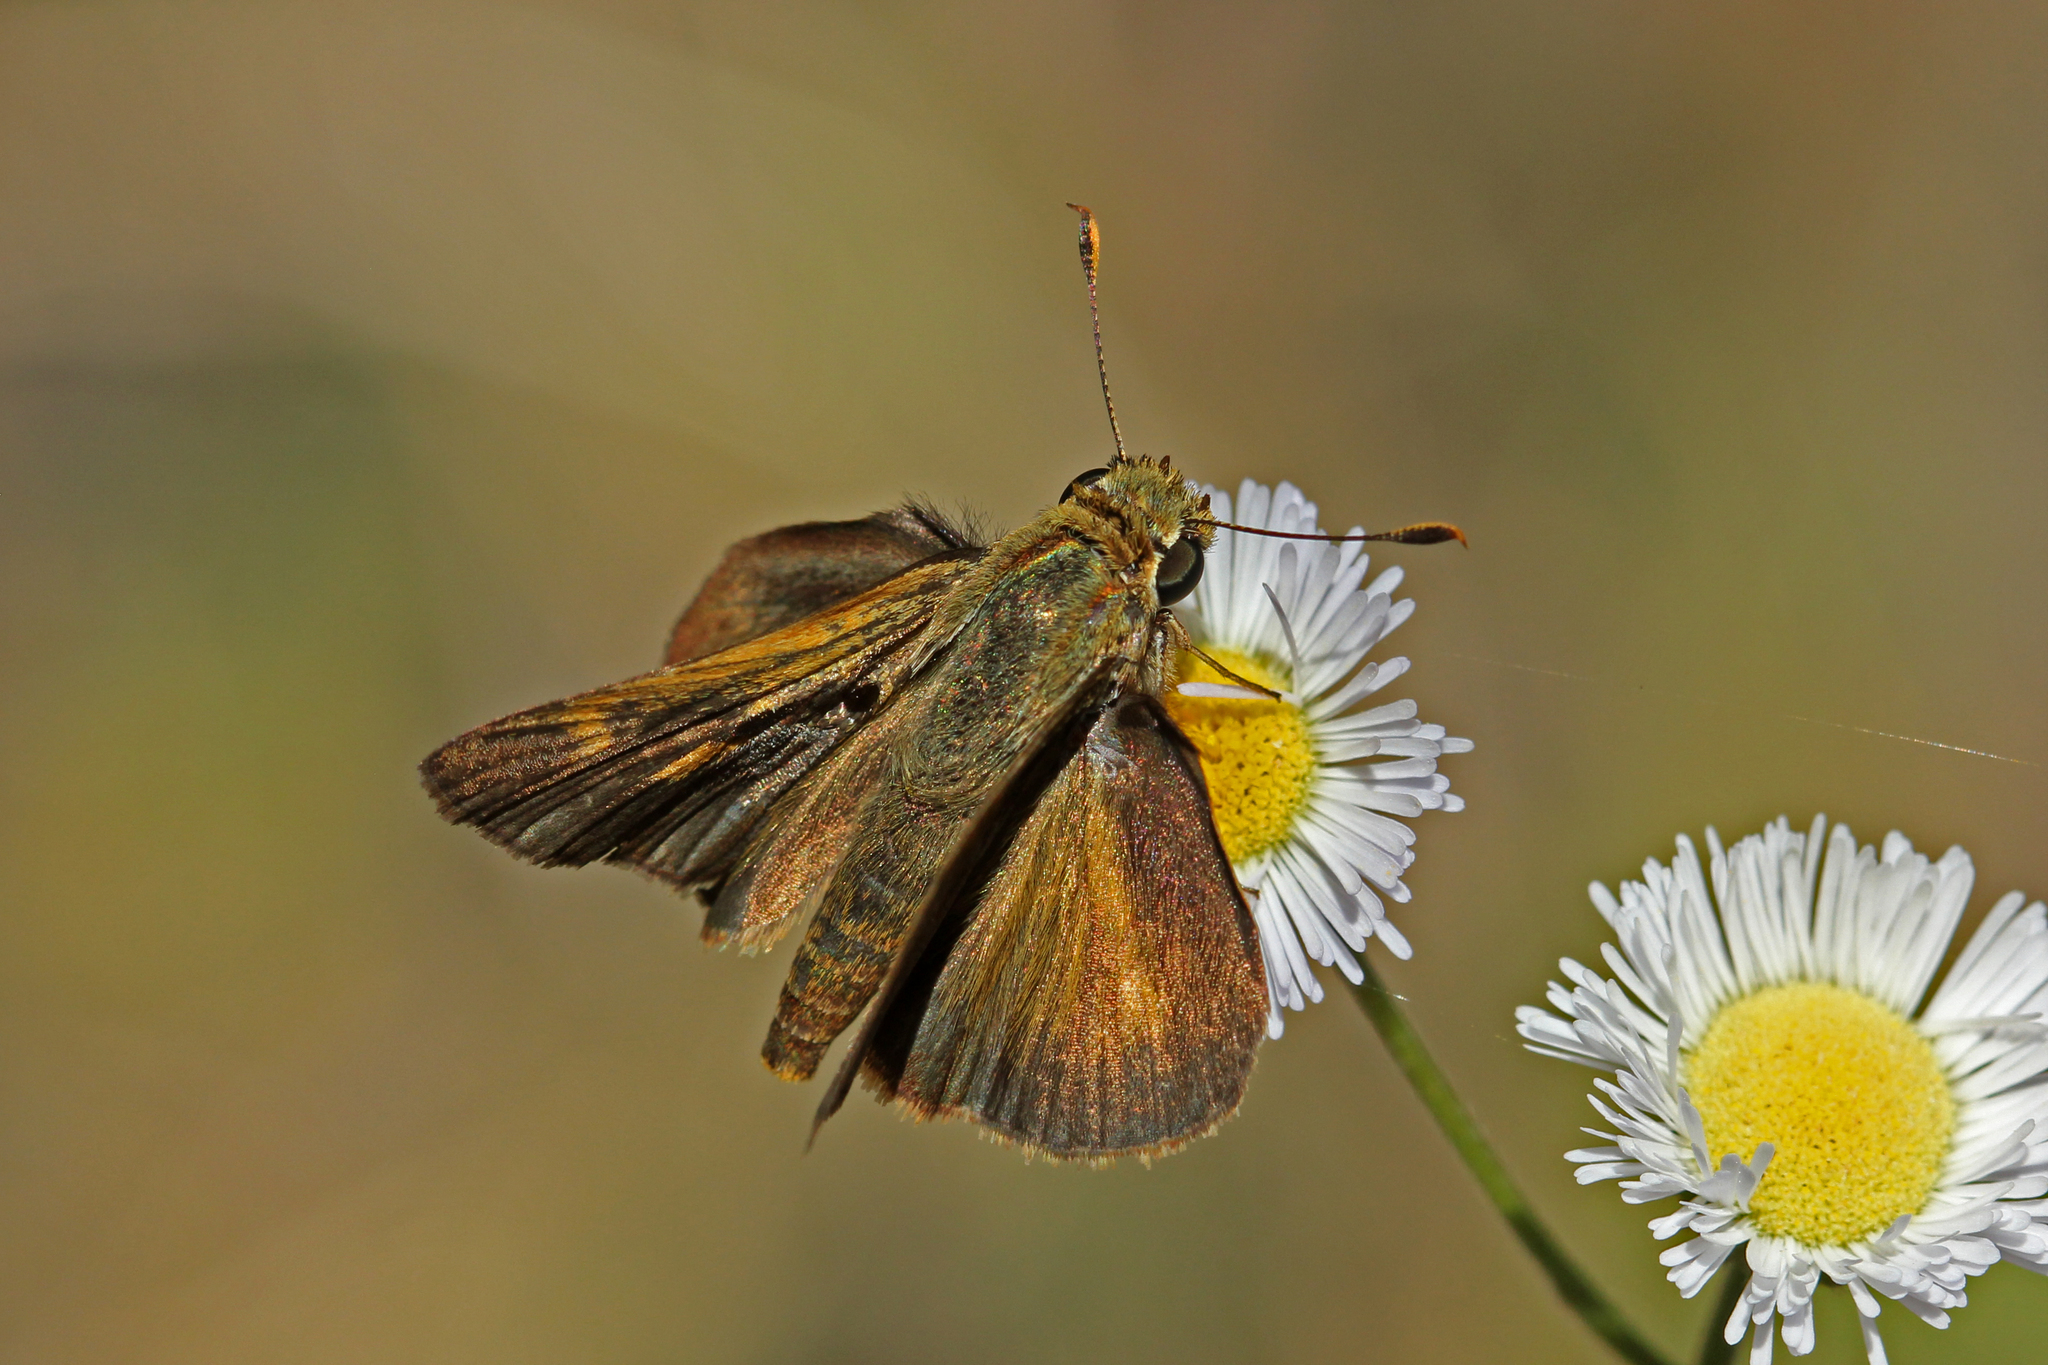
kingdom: Animalia
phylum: Arthropoda
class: Insecta
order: Lepidoptera
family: Hesperiidae
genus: Polites
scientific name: Polites themistocles
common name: Tawny-edged skipper
